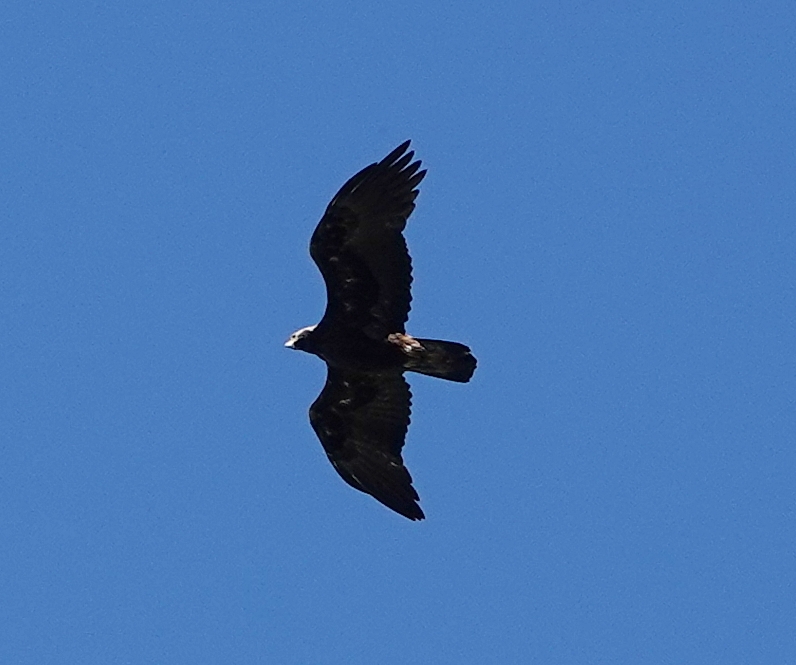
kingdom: Animalia
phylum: Chordata
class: Aves
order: Accipitriformes
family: Accipitridae
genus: Aquila
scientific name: Aquila chrysaetos
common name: Golden eagle
